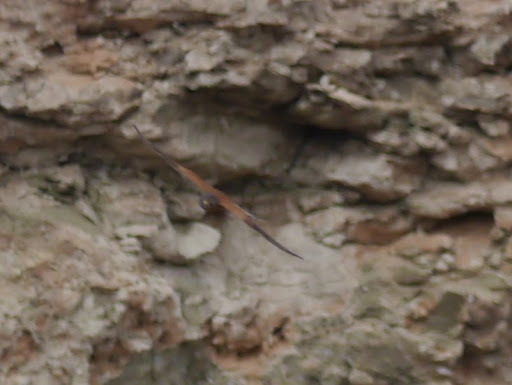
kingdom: Animalia
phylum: Chordata
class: Aves
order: Falconiformes
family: Falconidae
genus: Falco
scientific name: Falco rupicolus
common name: Rock kestrel
